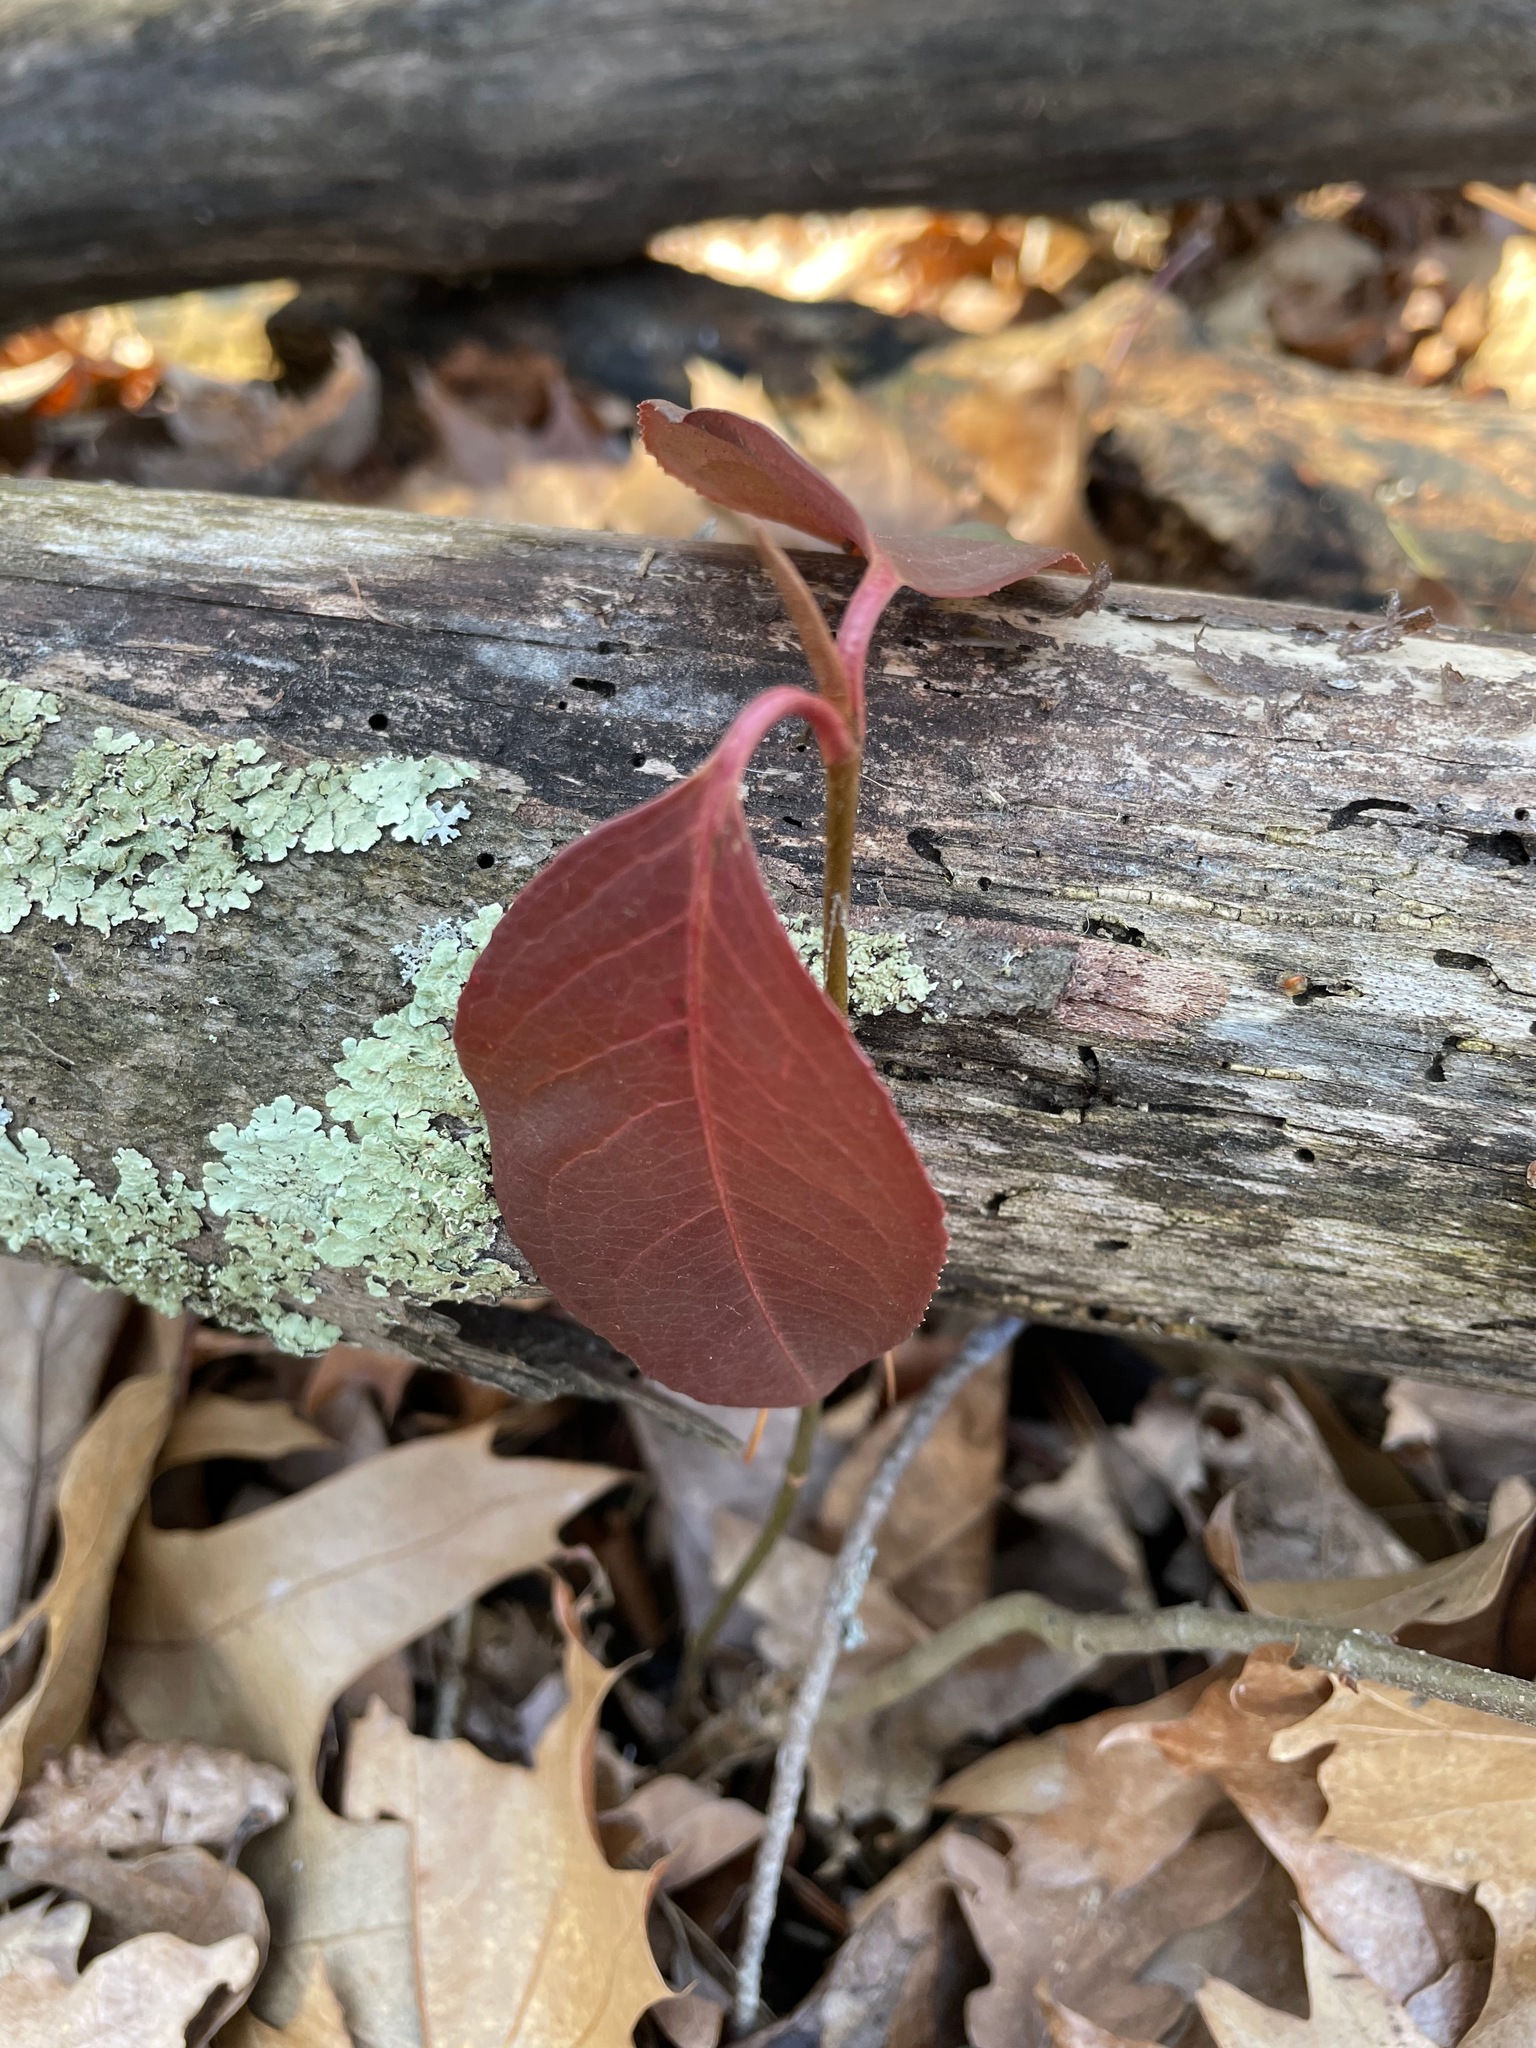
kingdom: Plantae
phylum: Tracheophyta
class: Magnoliopsida
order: Dipsacales
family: Viburnaceae
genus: Viburnum
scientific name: Viburnum cassinoides
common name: Swamp haw
